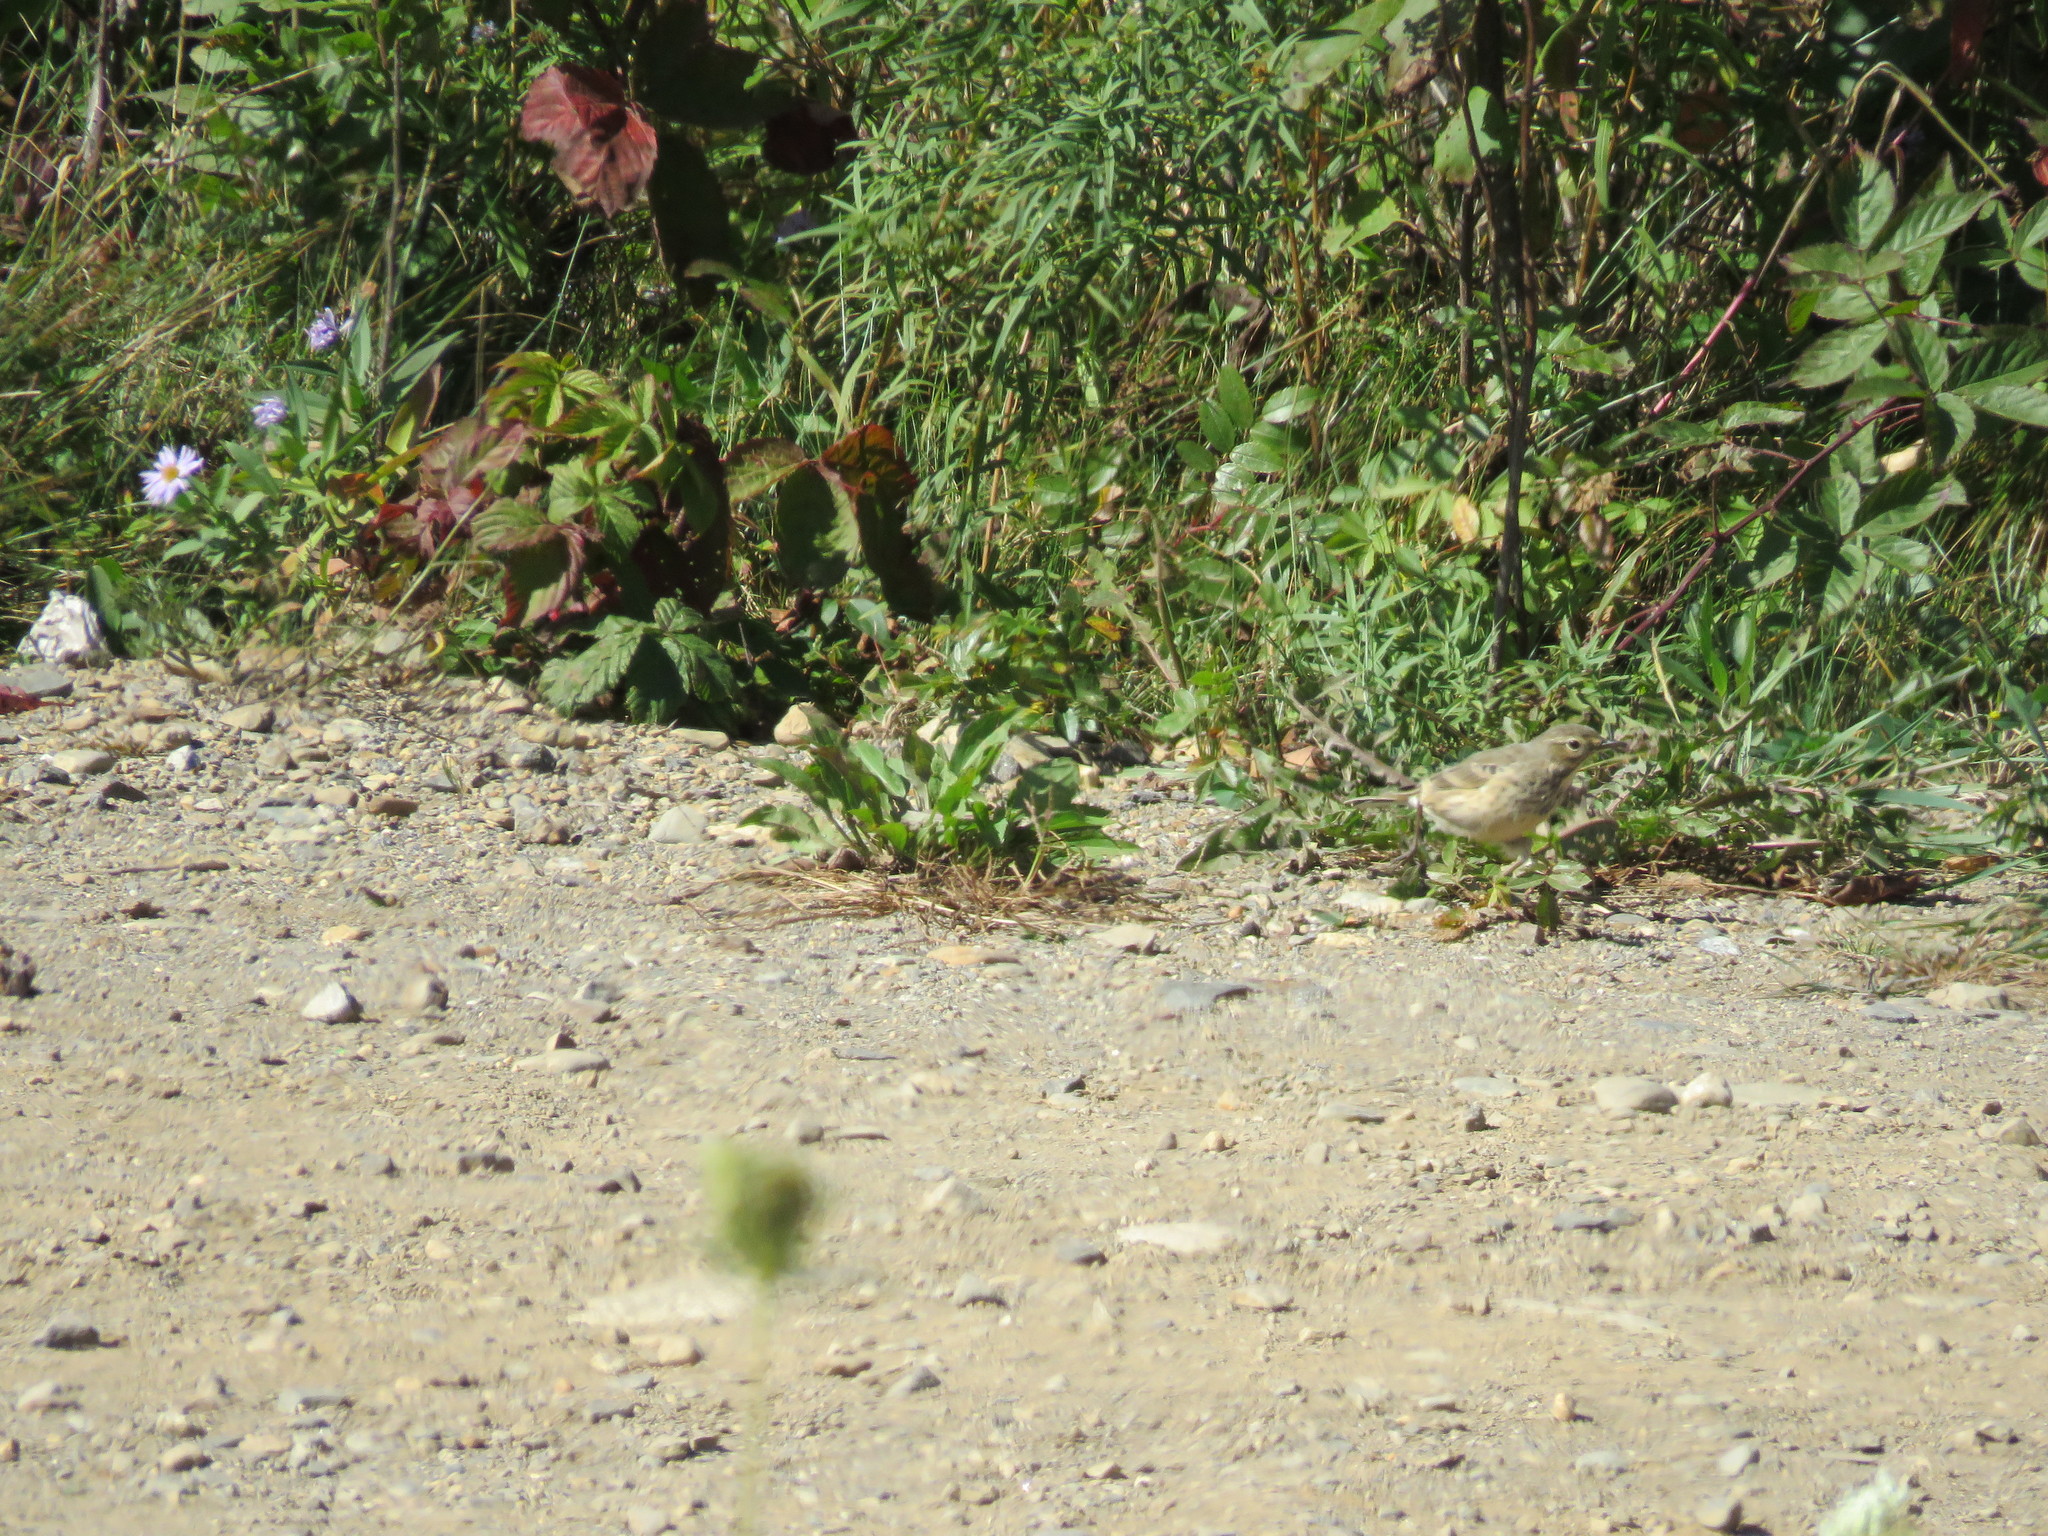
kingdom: Animalia
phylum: Chordata
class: Aves
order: Passeriformes
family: Motacillidae
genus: Anthus
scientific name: Anthus rubescens
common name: Buff-bellied pipit
